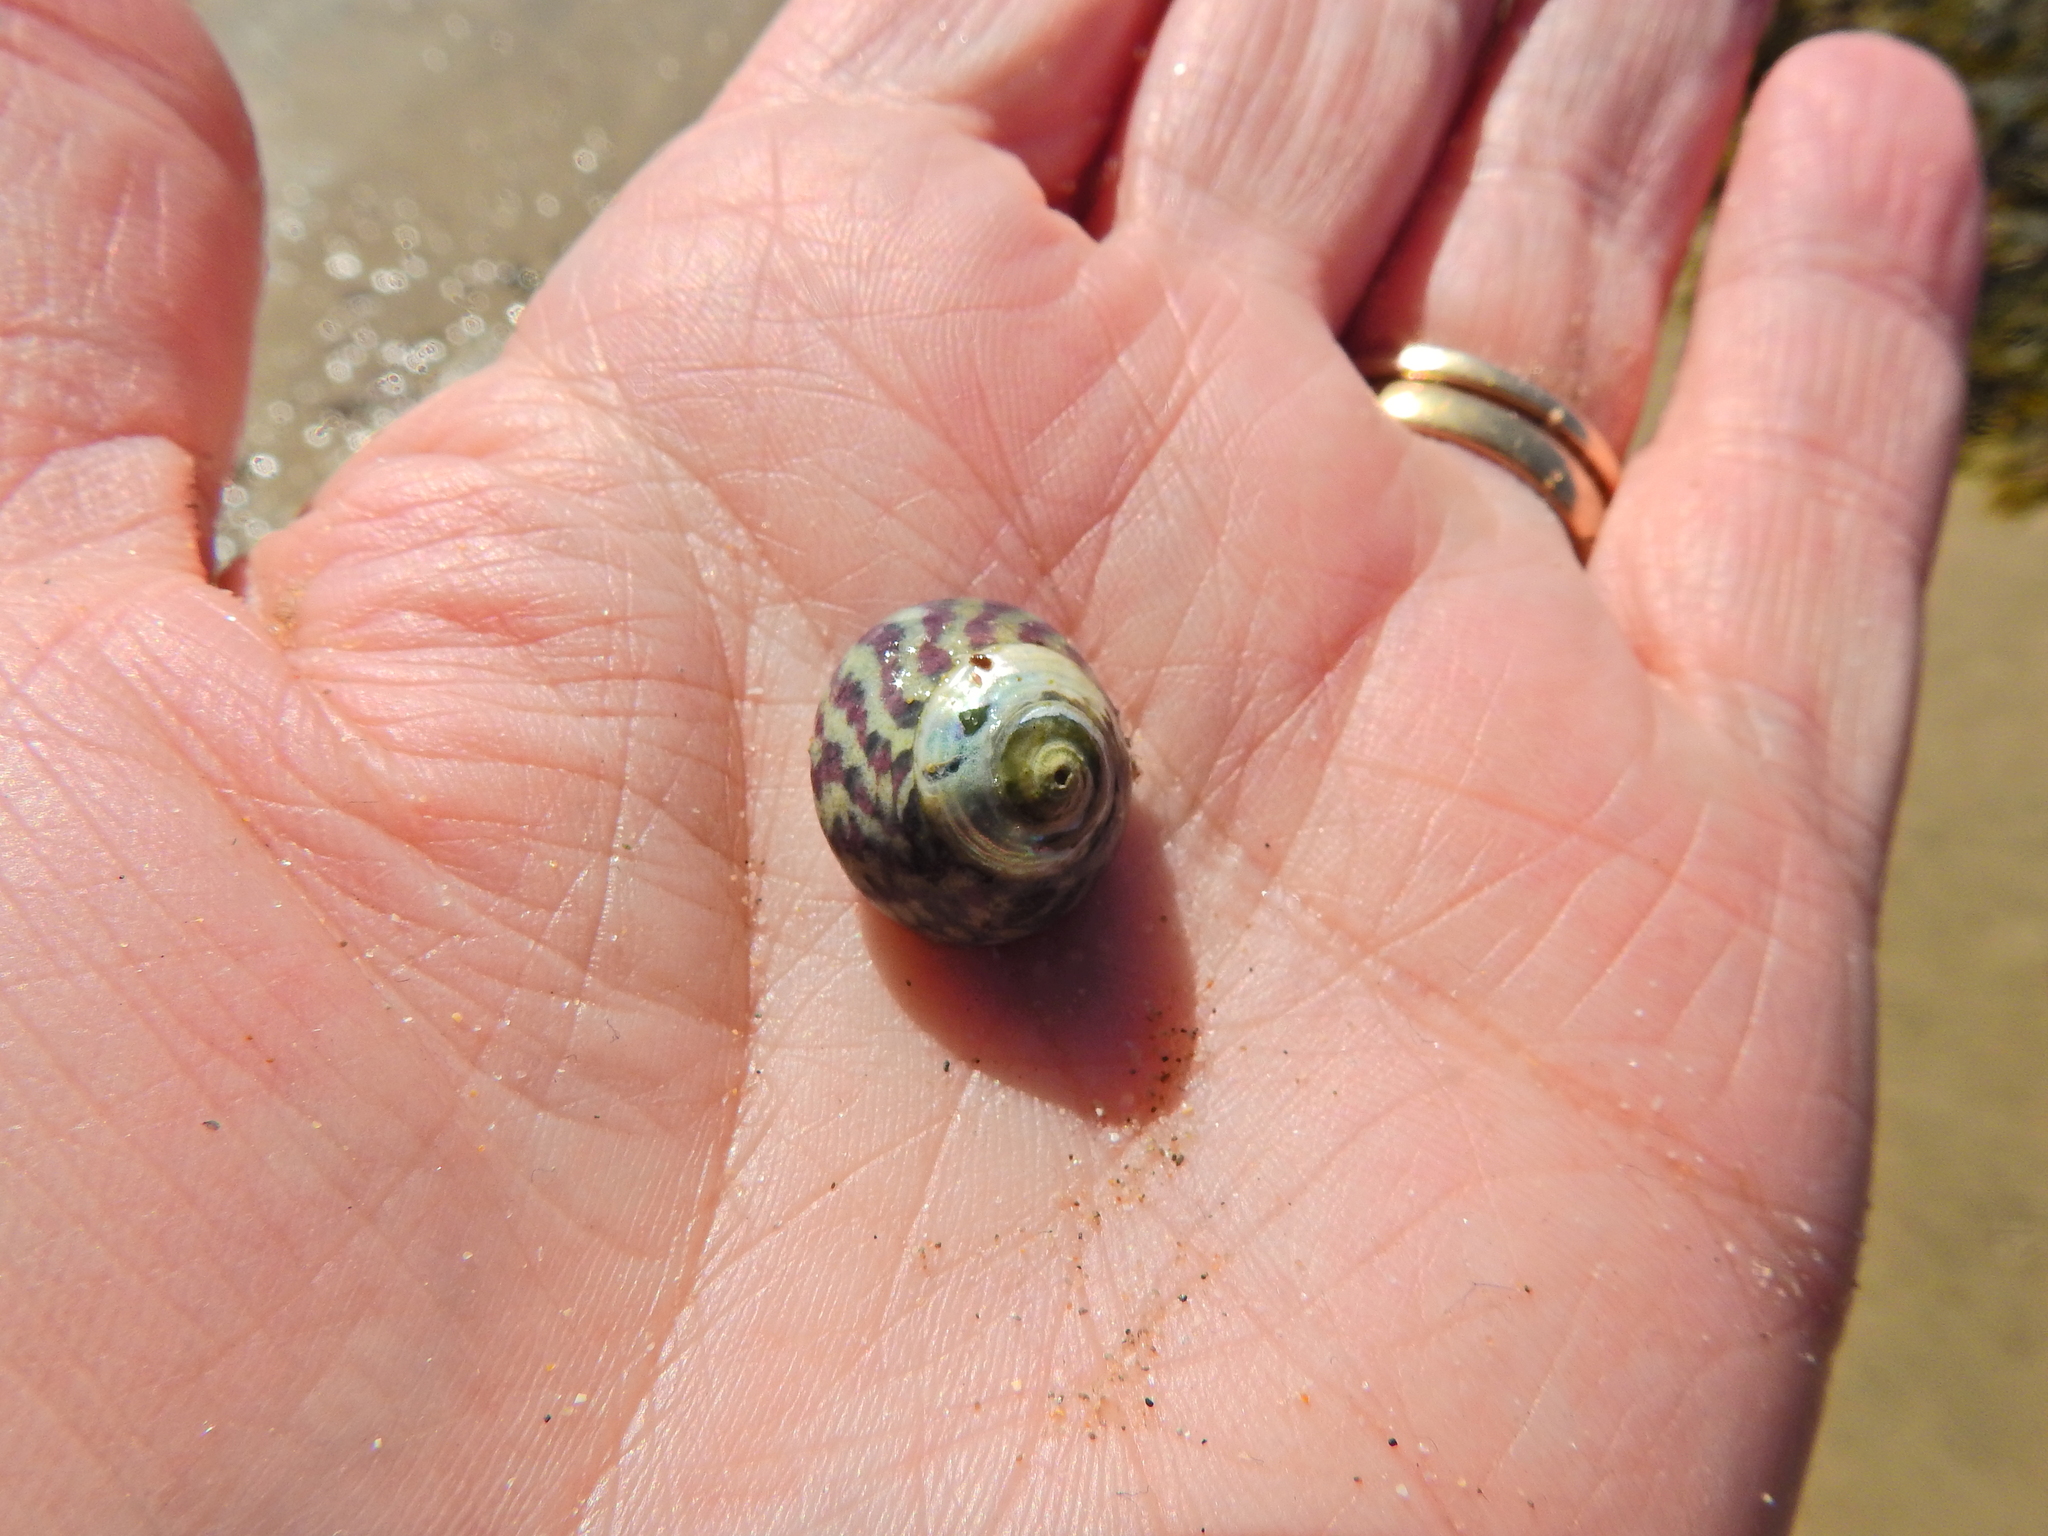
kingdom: Animalia
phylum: Mollusca
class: Gastropoda
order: Trochida
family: Trochidae
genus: Steromphala
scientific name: Steromphala umbilicalis
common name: Flat top shell
